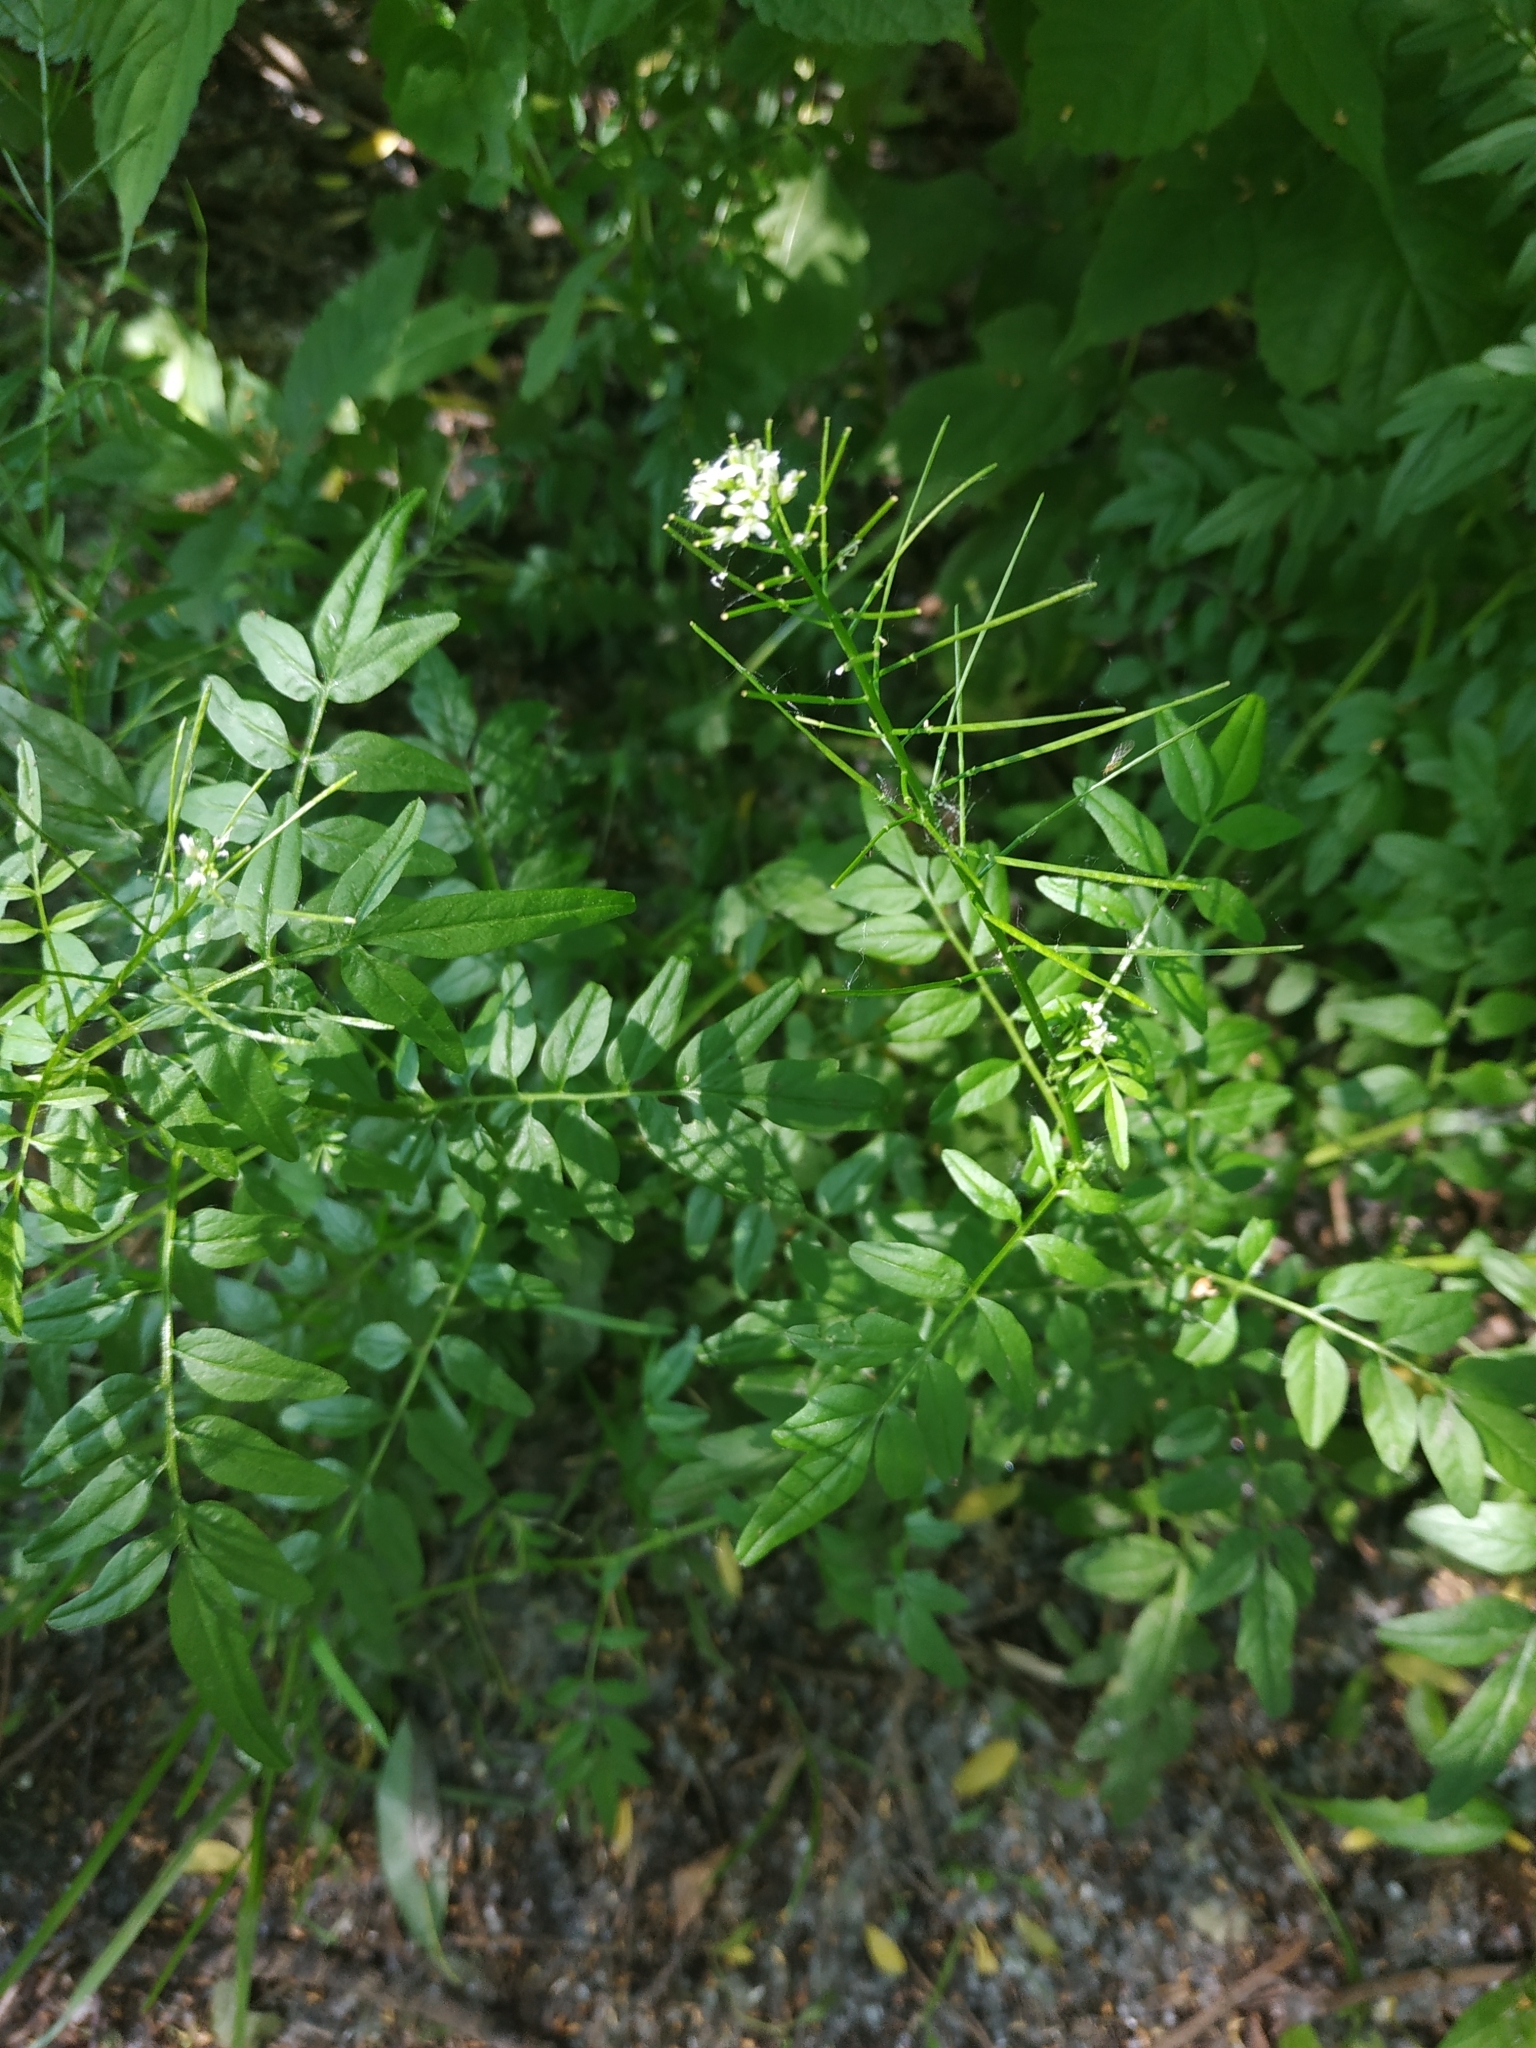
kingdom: Plantae
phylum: Tracheophyta
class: Magnoliopsida
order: Brassicales
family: Brassicaceae
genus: Cardamine
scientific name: Cardamine impatiens
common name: Narrow-leaved bitter-cress
